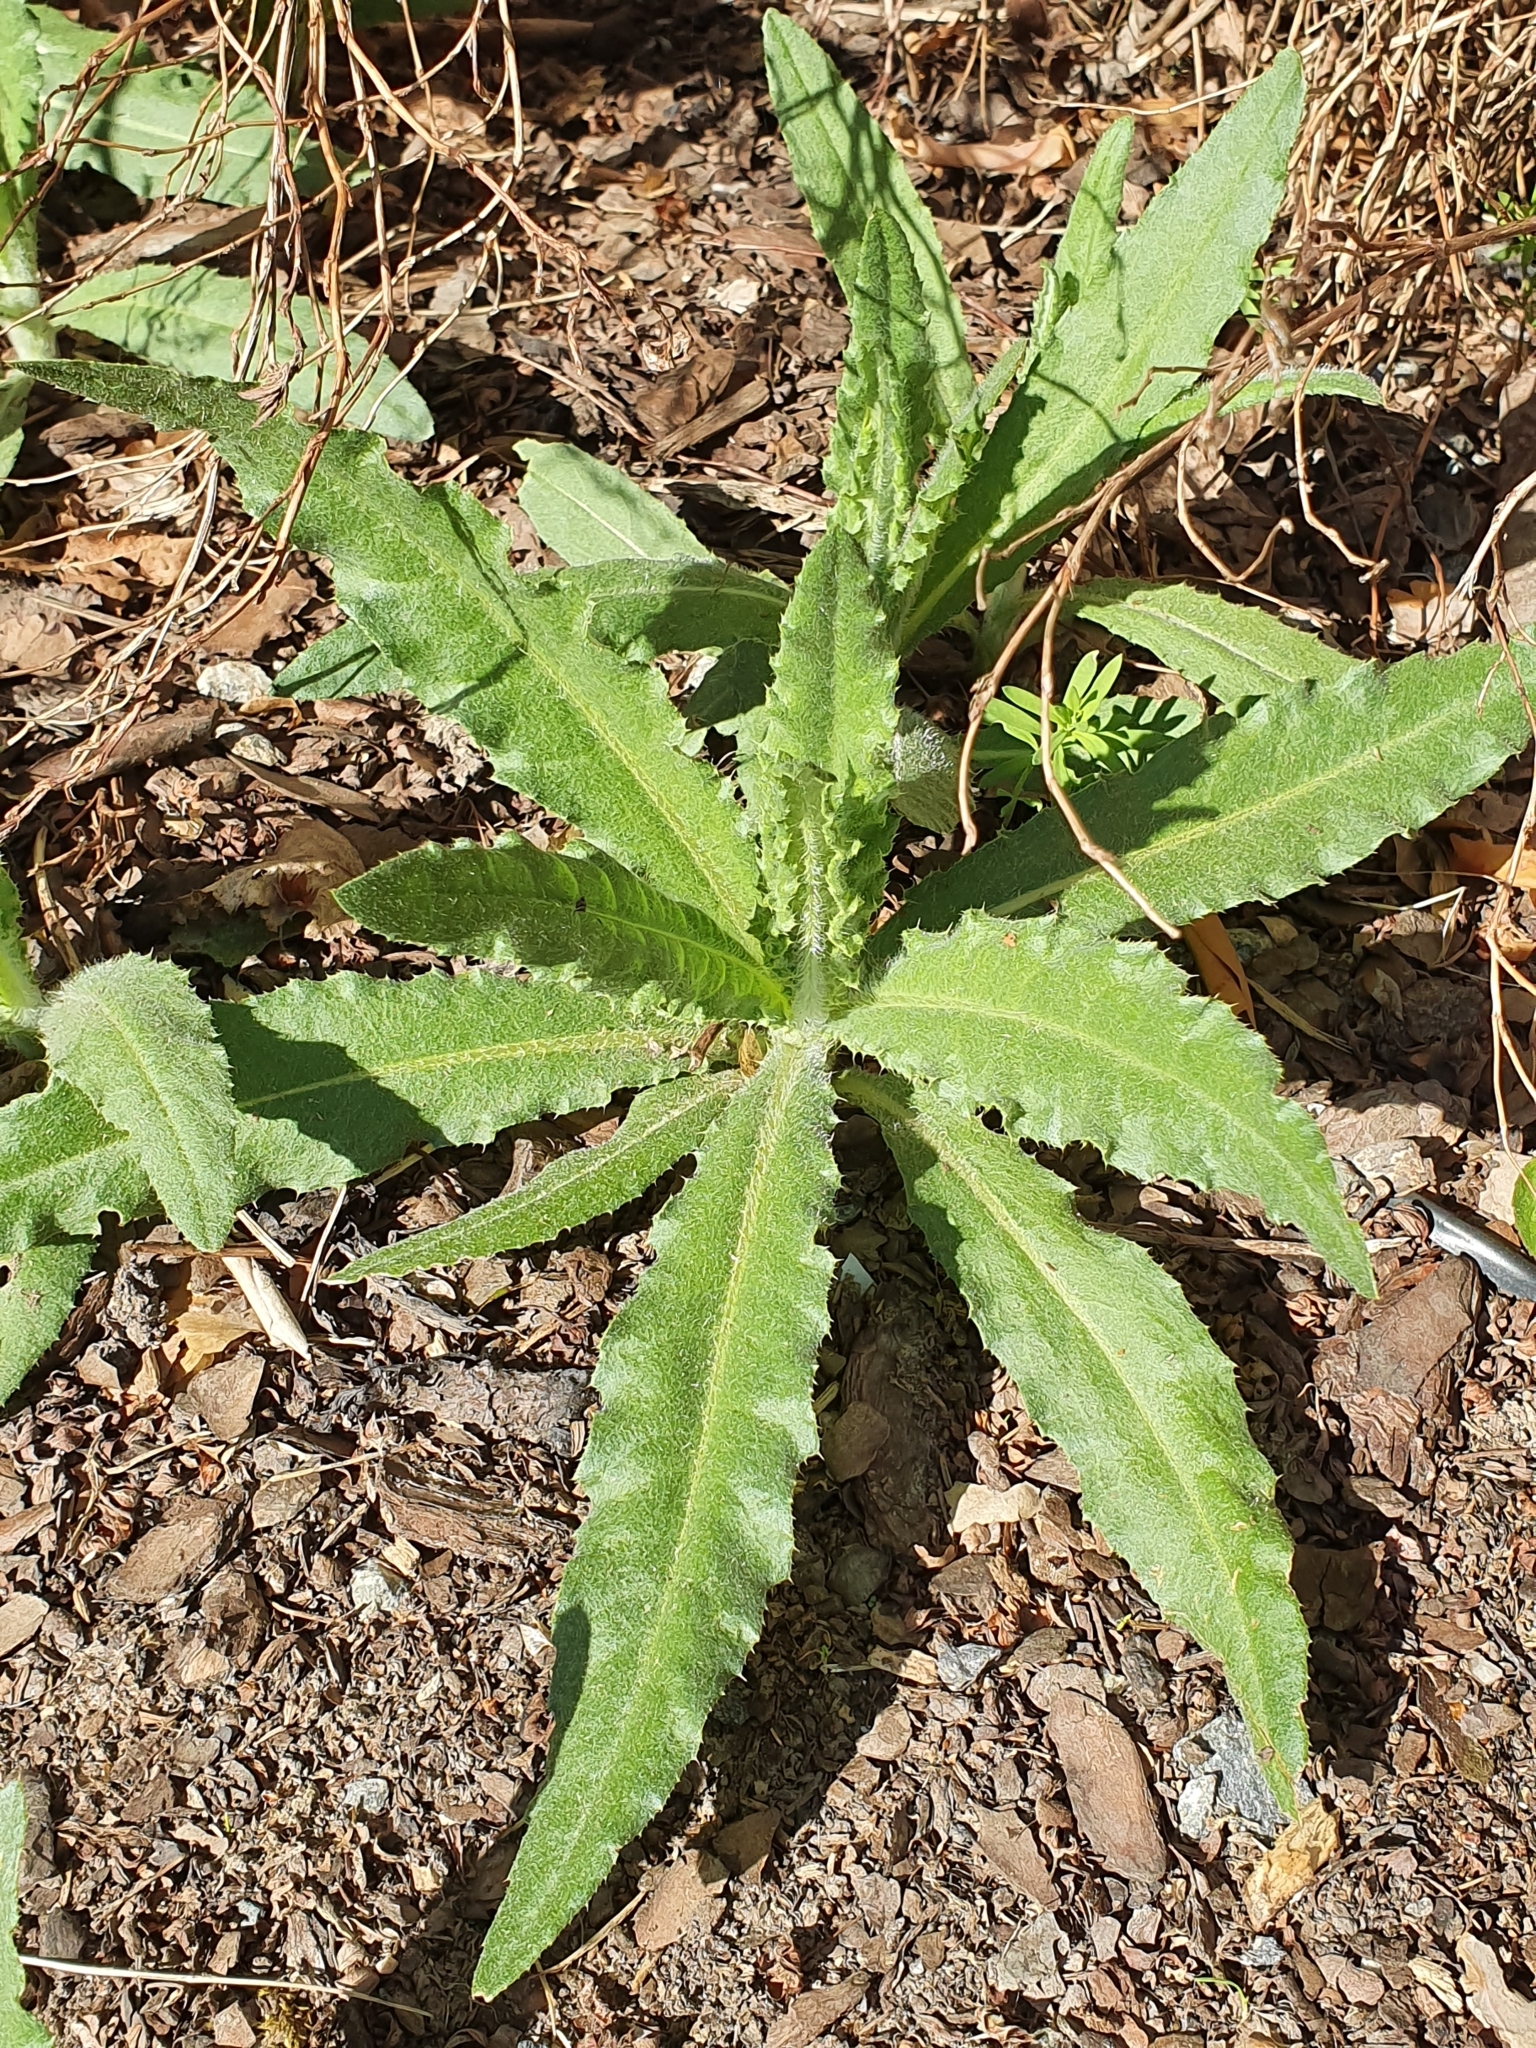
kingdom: Plantae
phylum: Tracheophyta
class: Magnoliopsida
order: Asterales
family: Asteraceae
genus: Cirsium
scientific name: Cirsium arvense
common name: Creeping thistle
